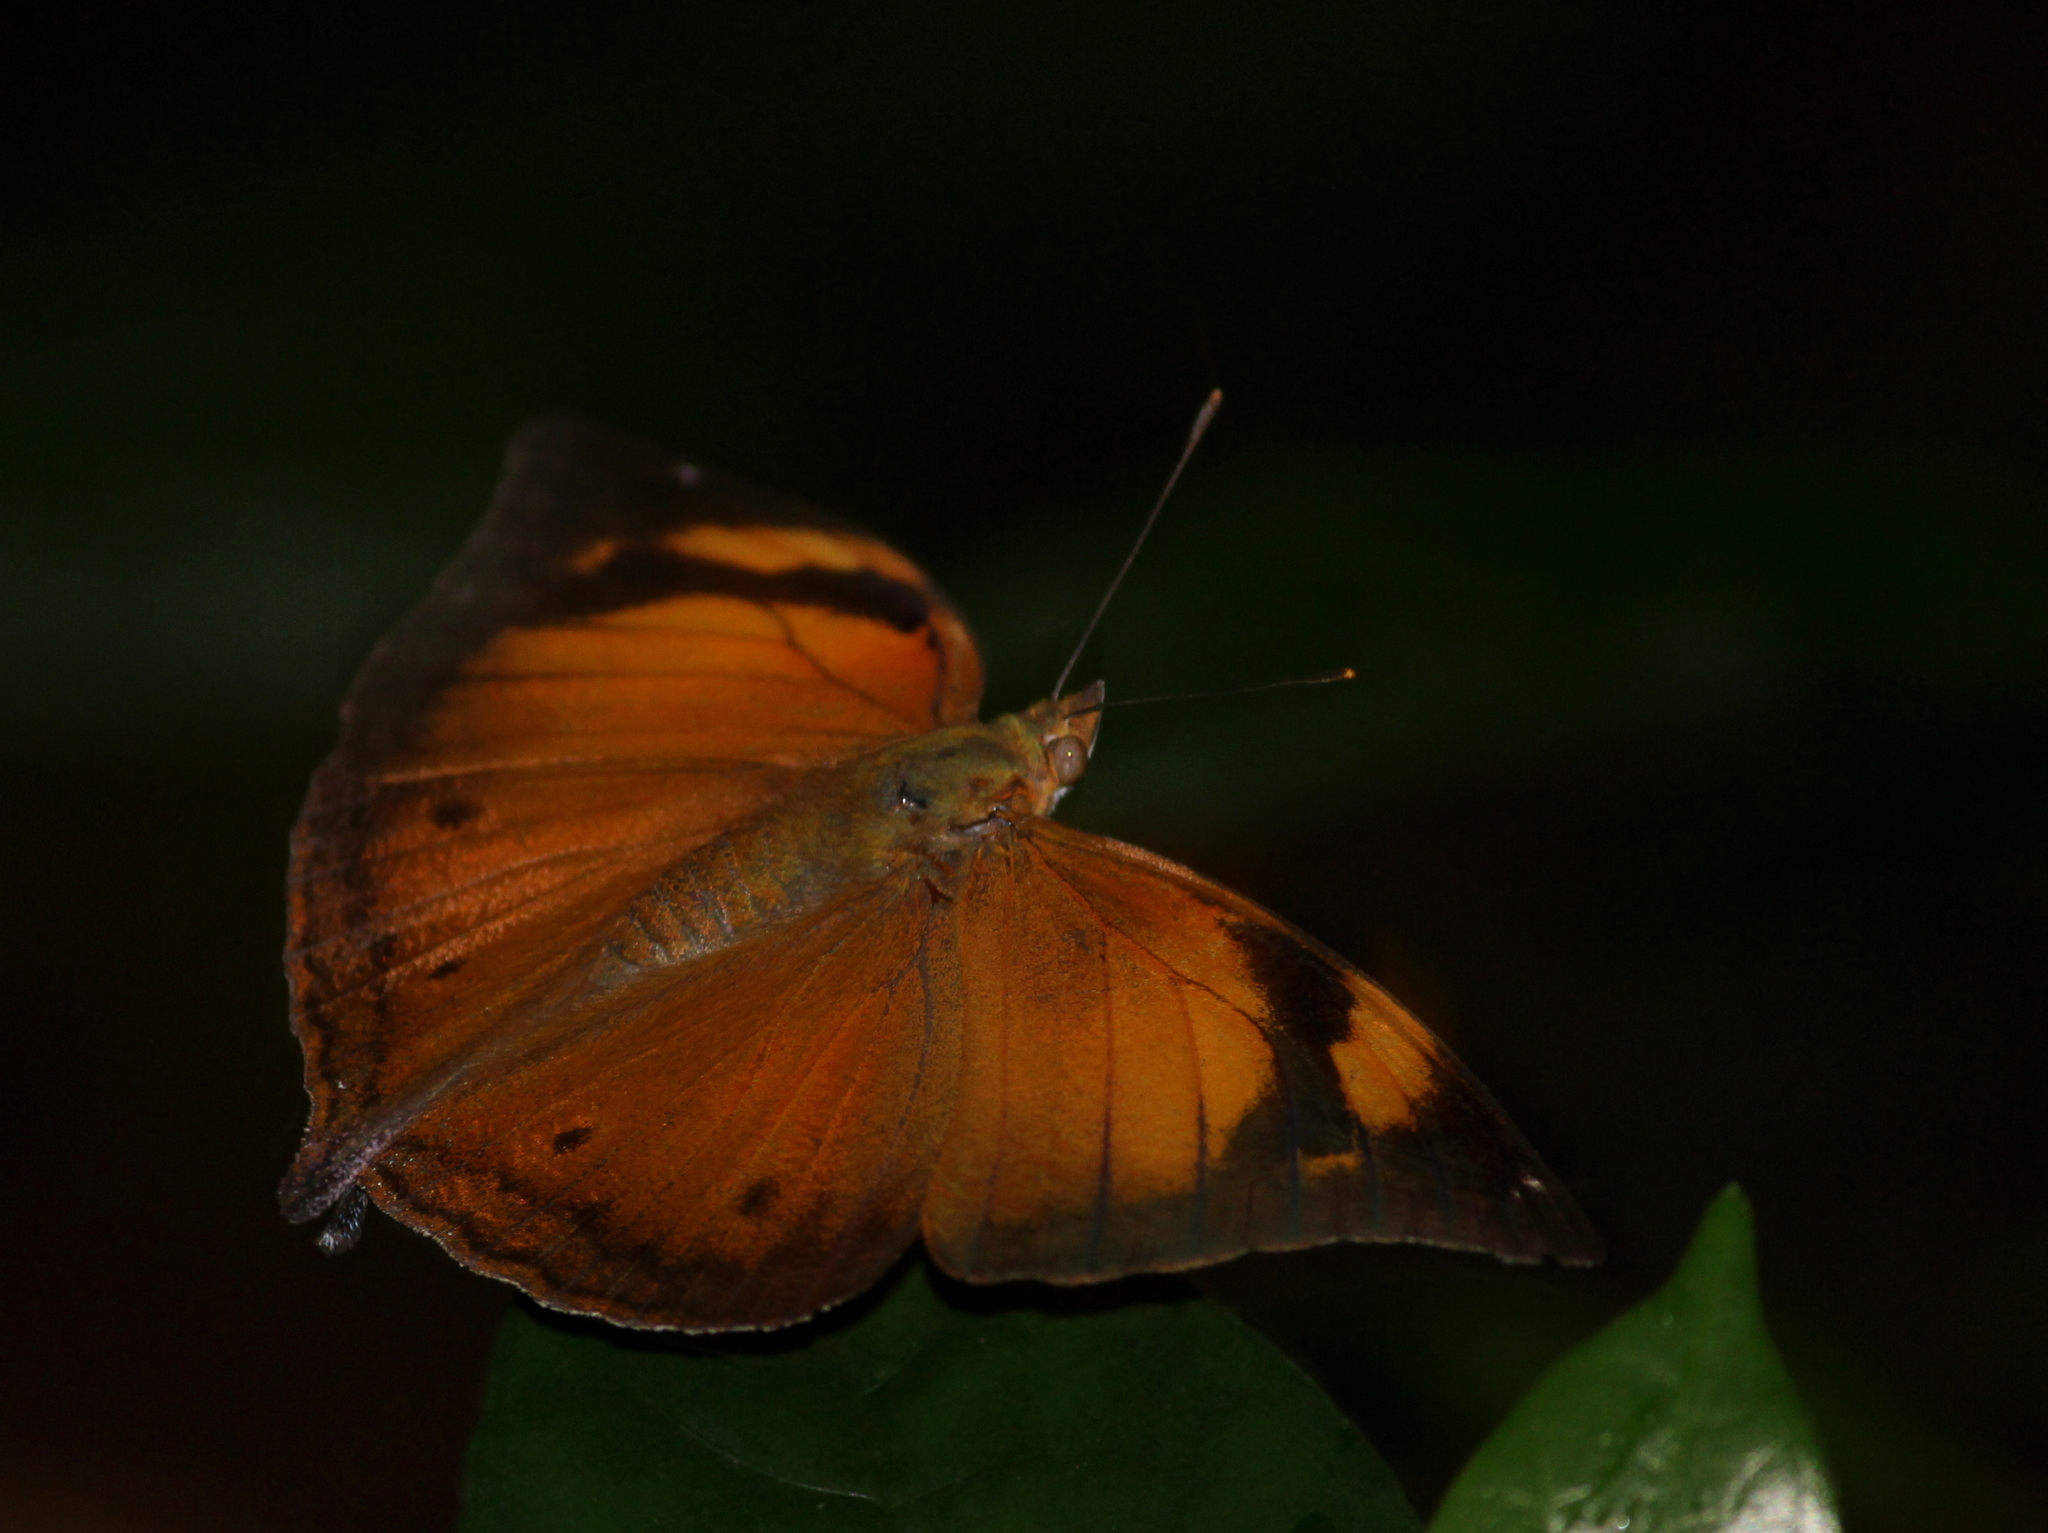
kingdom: Animalia
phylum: Arthropoda
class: Insecta
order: Lepidoptera
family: Nymphalidae
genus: Doleschallia
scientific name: Doleschallia bisaltide
